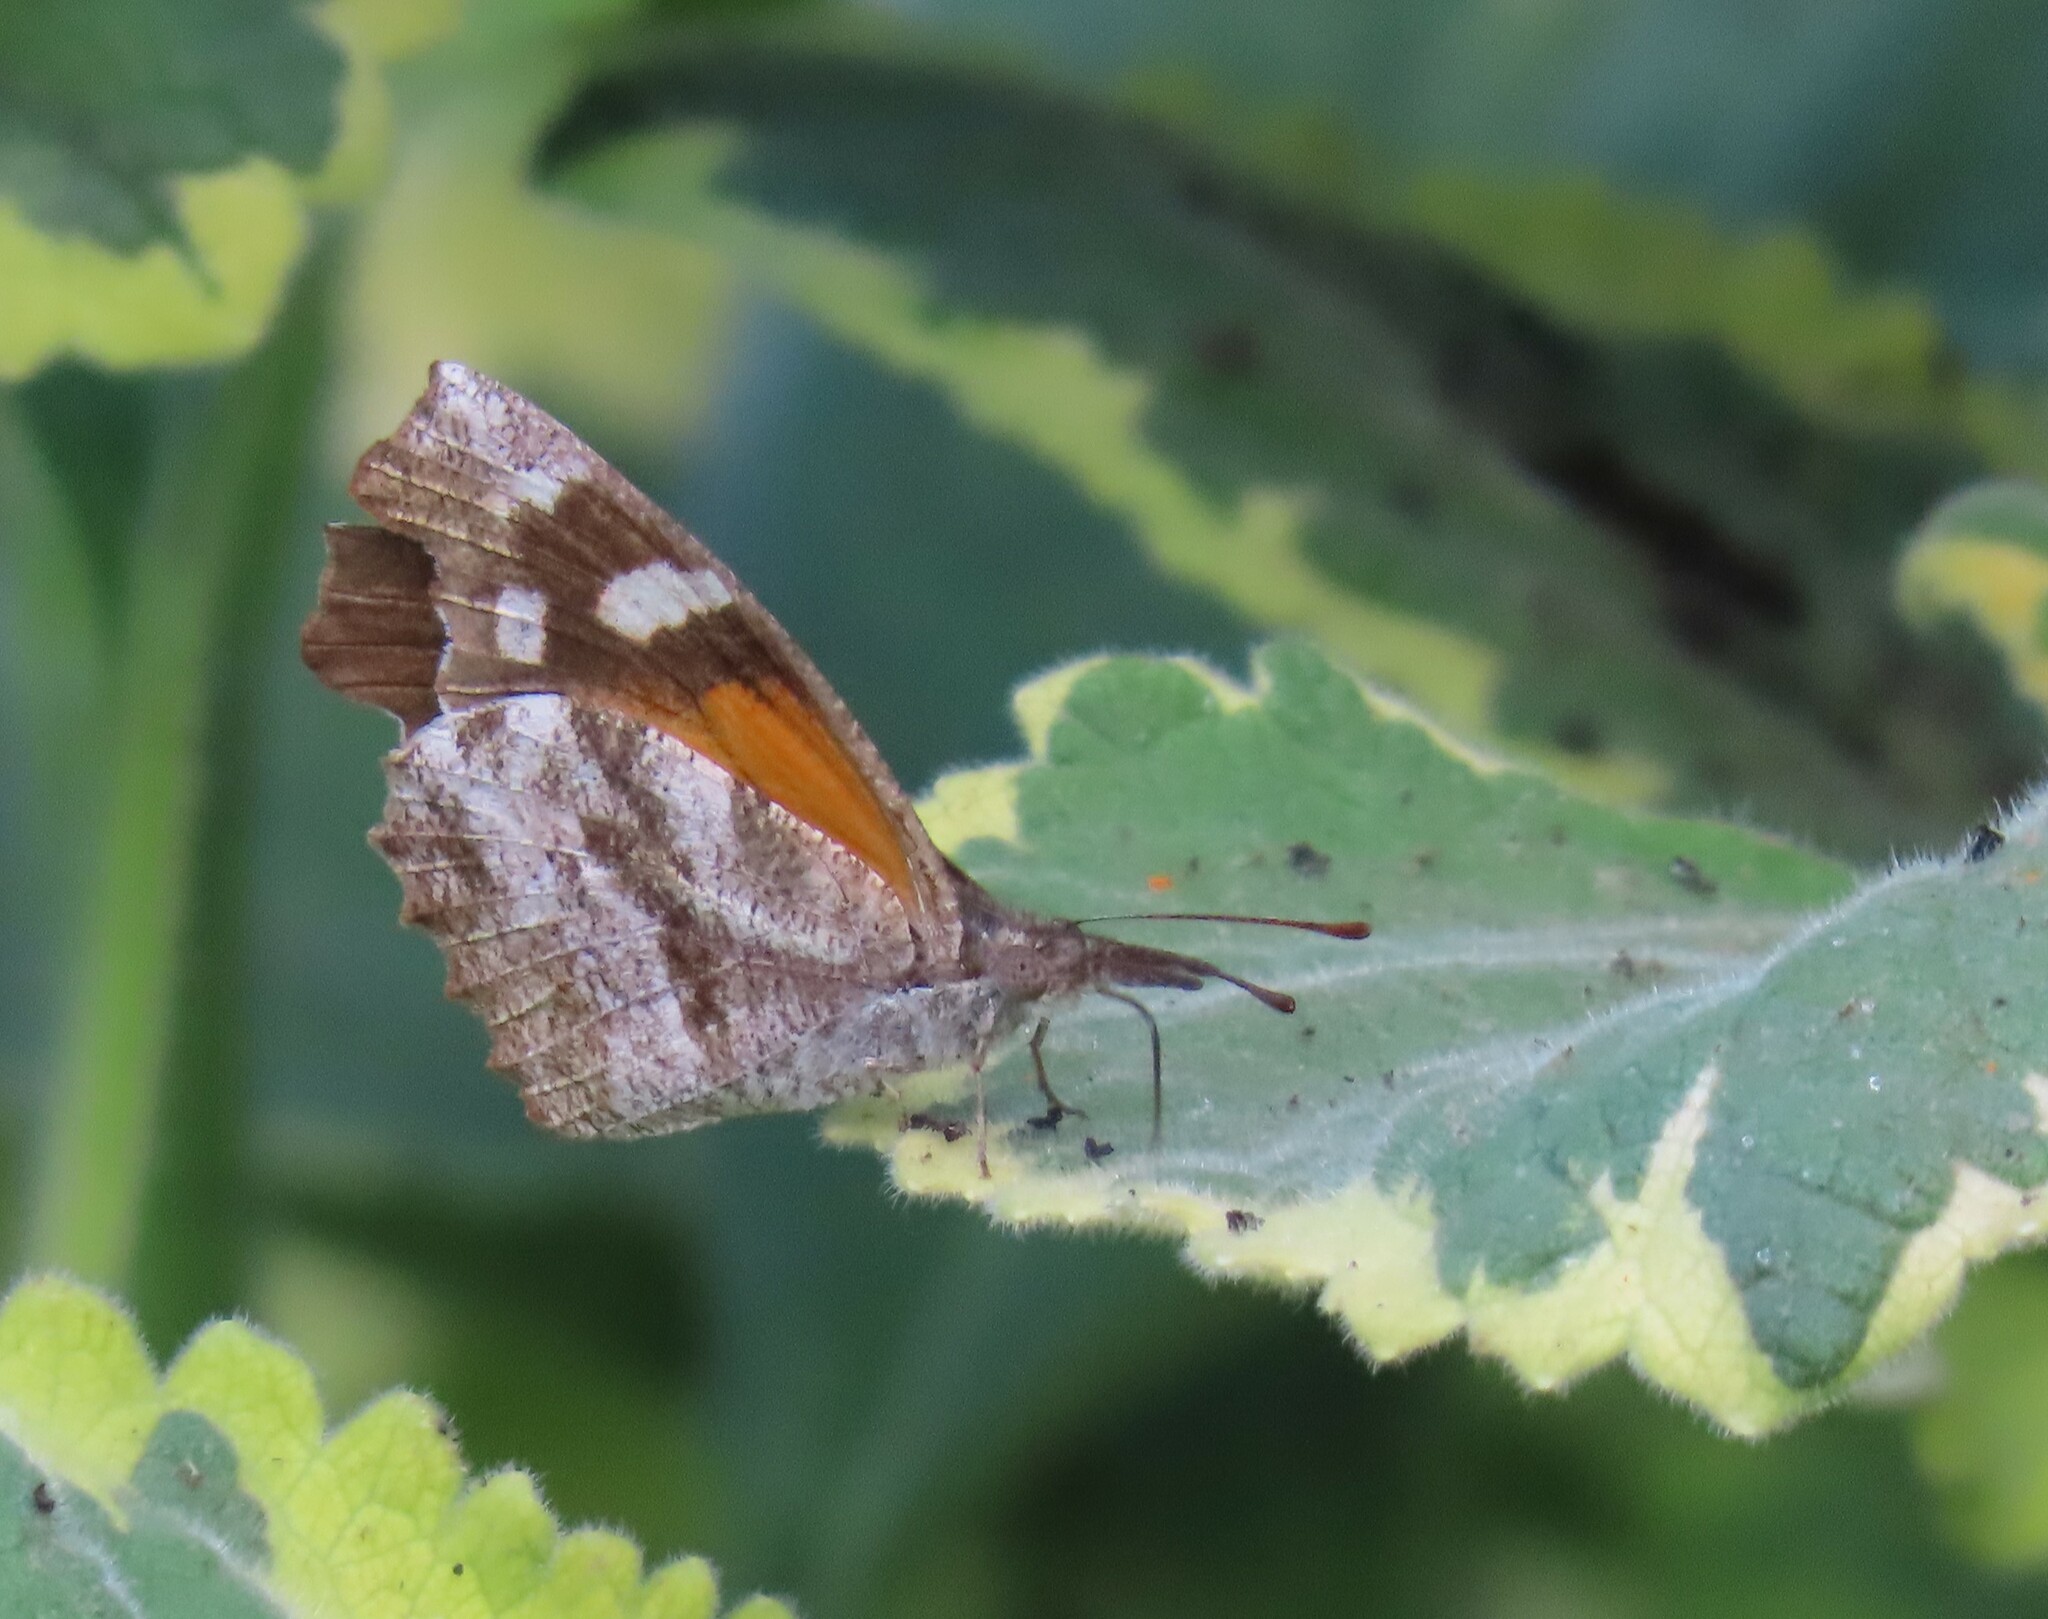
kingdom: Animalia
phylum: Arthropoda
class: Insecta
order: Lepidoptera
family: Nymphalidae
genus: Libytheana
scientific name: Libytheana carinenta
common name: American snout
